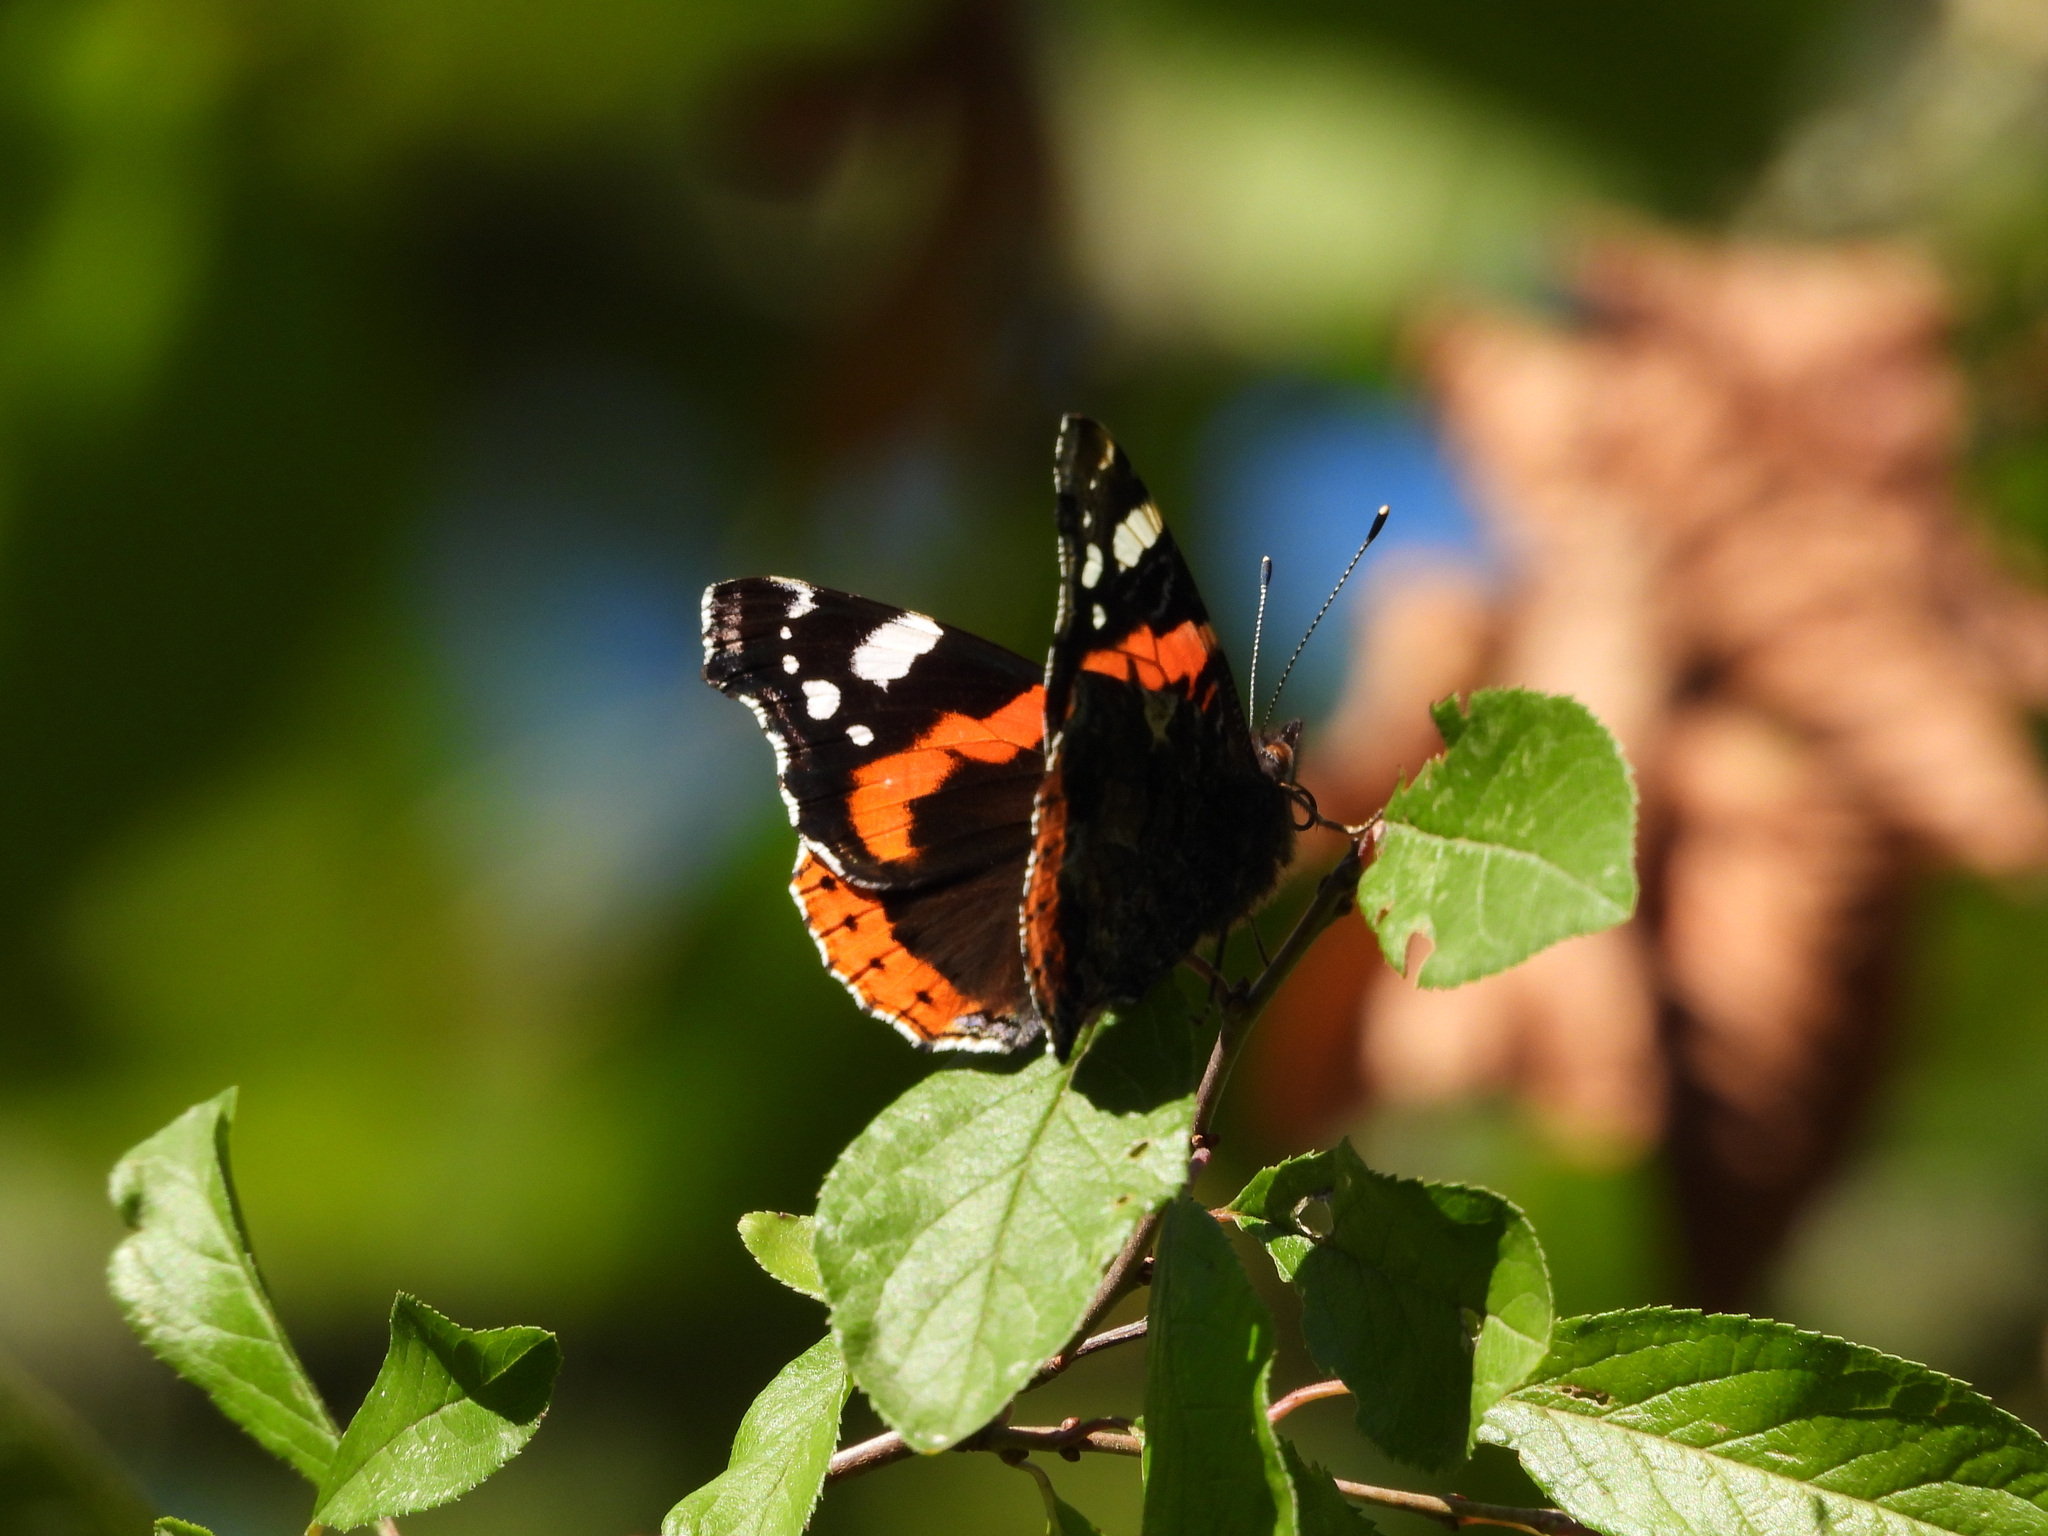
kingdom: Animalia
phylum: Arthropoda
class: Insecta
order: Lepidoptera
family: Nymphalidae
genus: Vanessa
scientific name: Vanessa atalanta
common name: Red admiral
